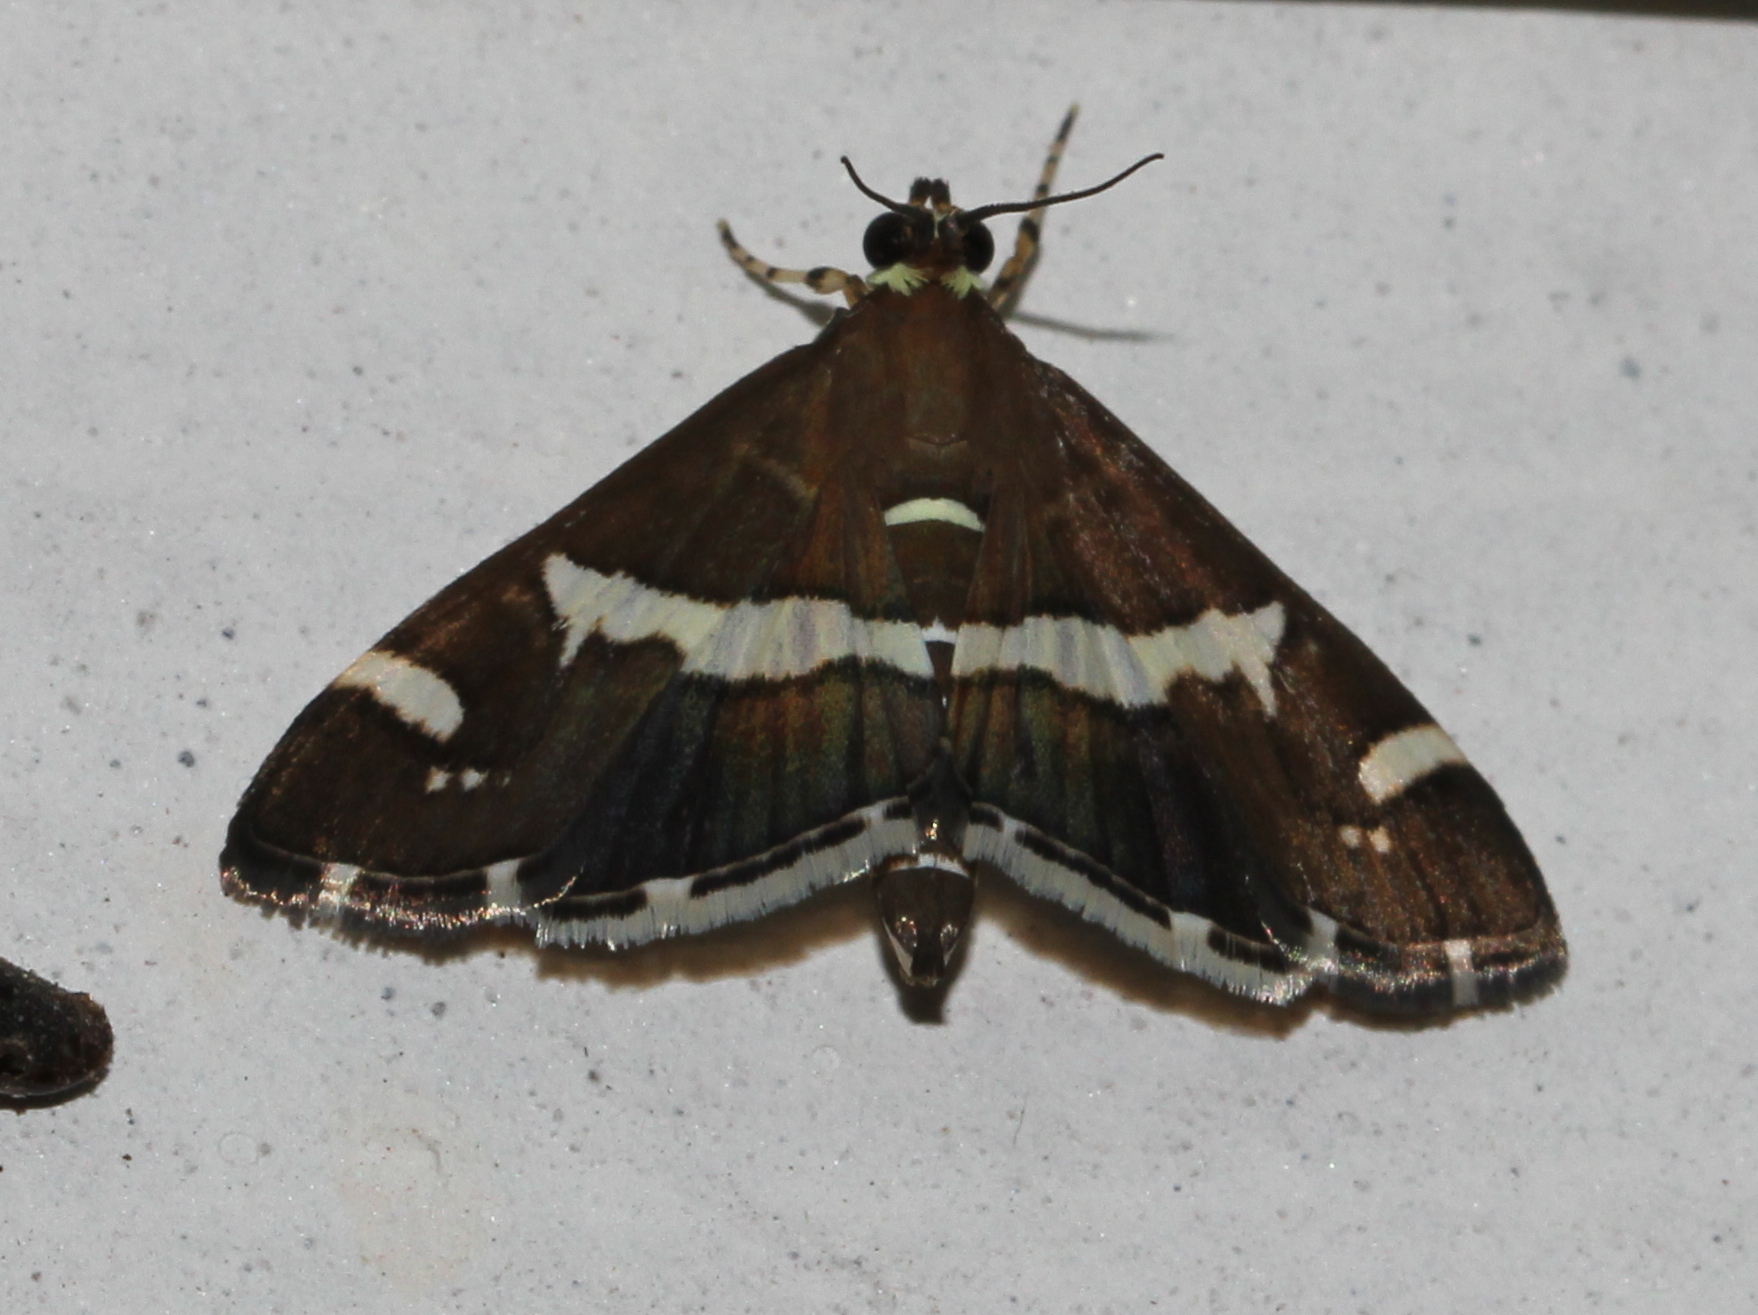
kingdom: Animalia
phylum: Arthropoda
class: Insecta
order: Lepidoptera
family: Crambidae
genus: Spoladea
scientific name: Spoladea recurvalis
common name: Beet webworm moth
